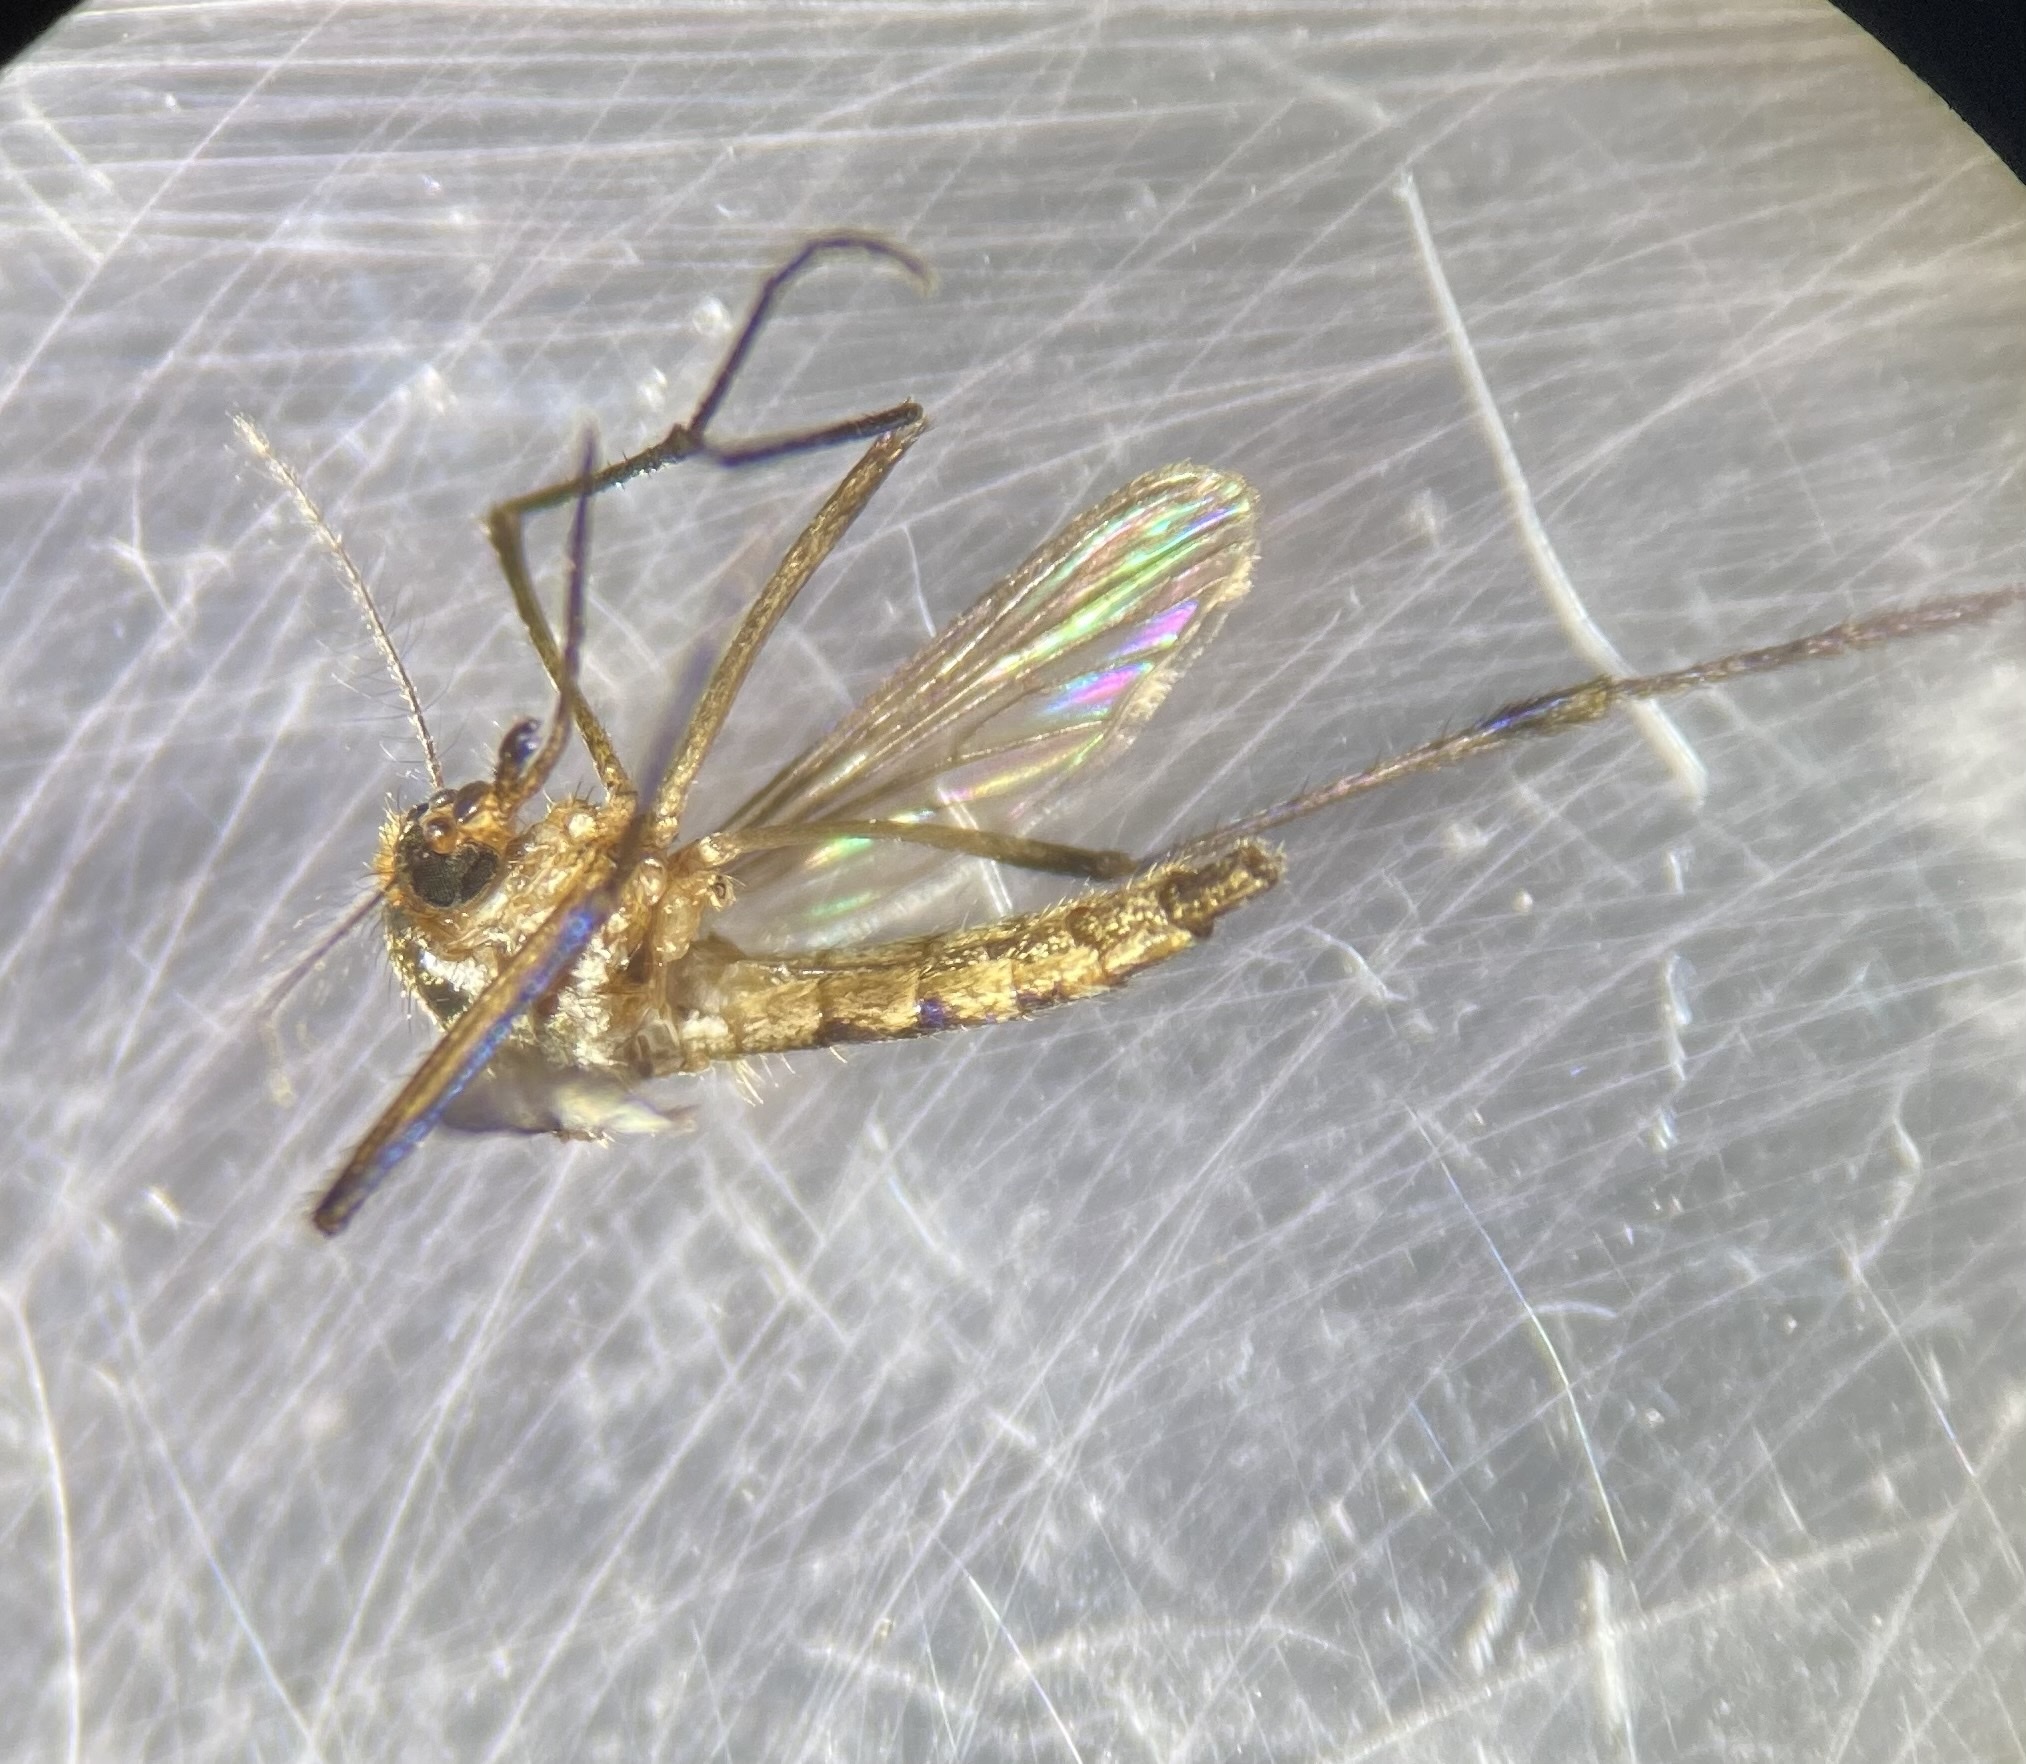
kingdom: Animalia
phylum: Arthropoda
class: Insecta
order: Diptera
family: Culicidae
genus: Psorophora
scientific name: Psorophora ferox
